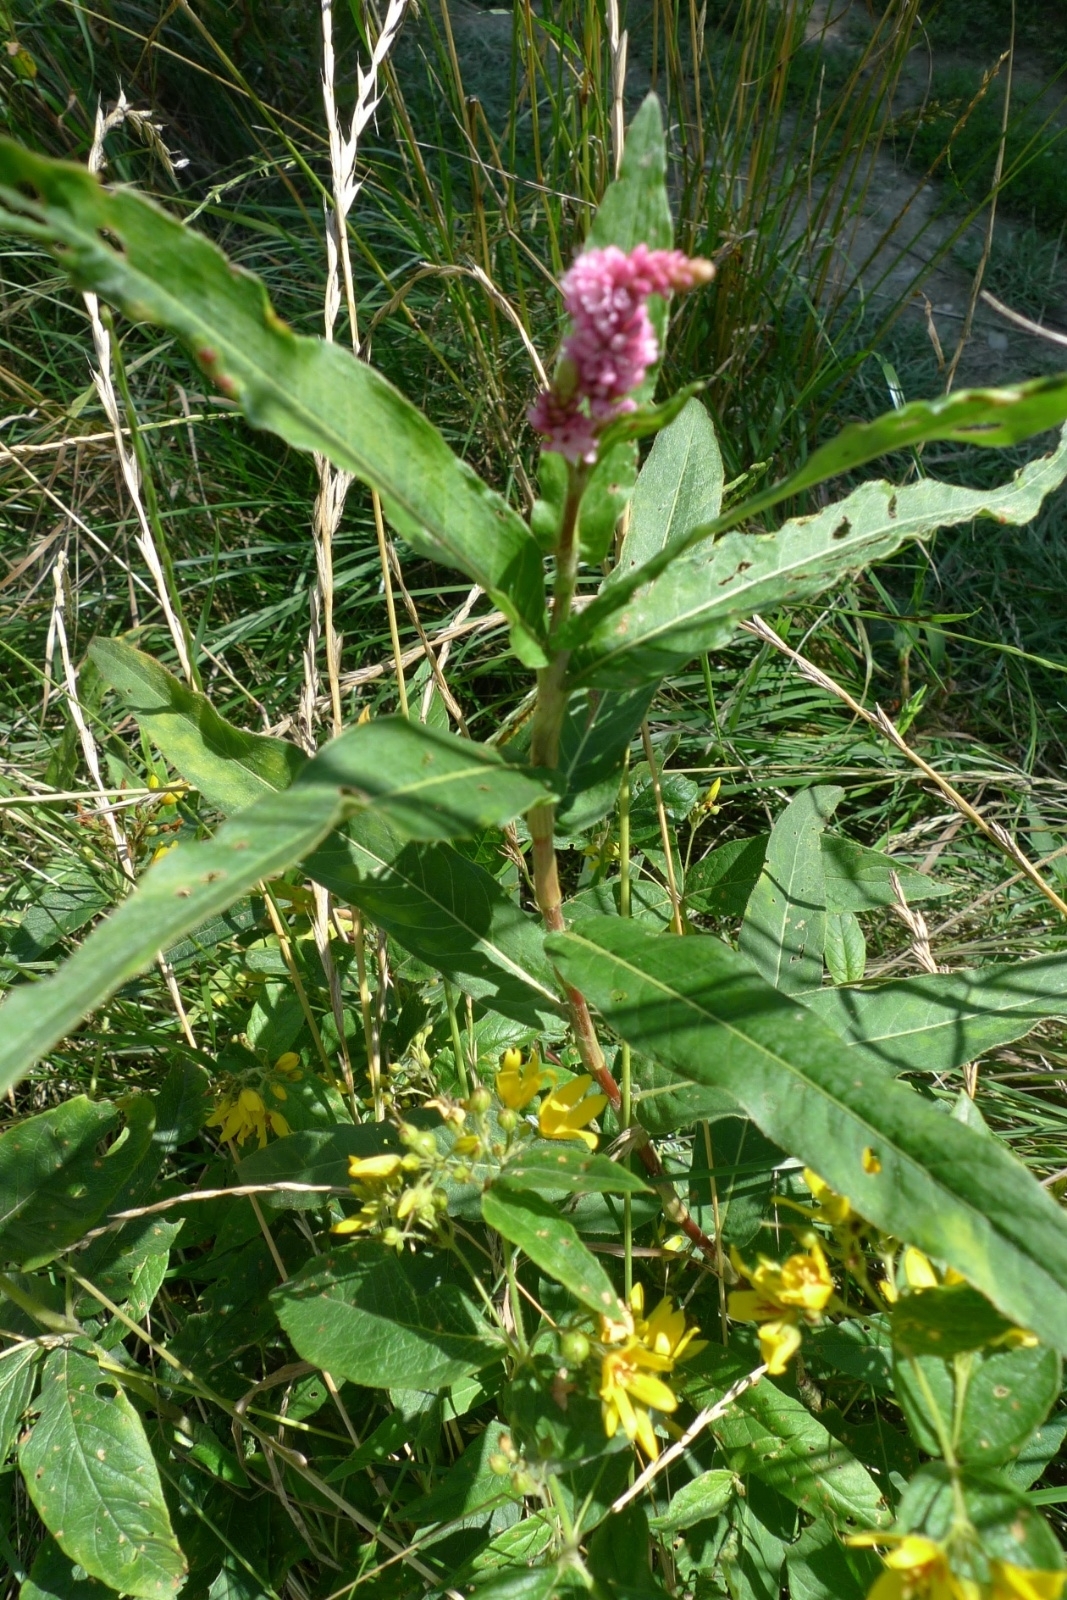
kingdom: Plantae
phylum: Tracheophyta
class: Magnoliopsida
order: Caryophyllales
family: Polygonaceae
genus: Persicaria
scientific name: Persicaria amphibia
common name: Amphibious bistort
